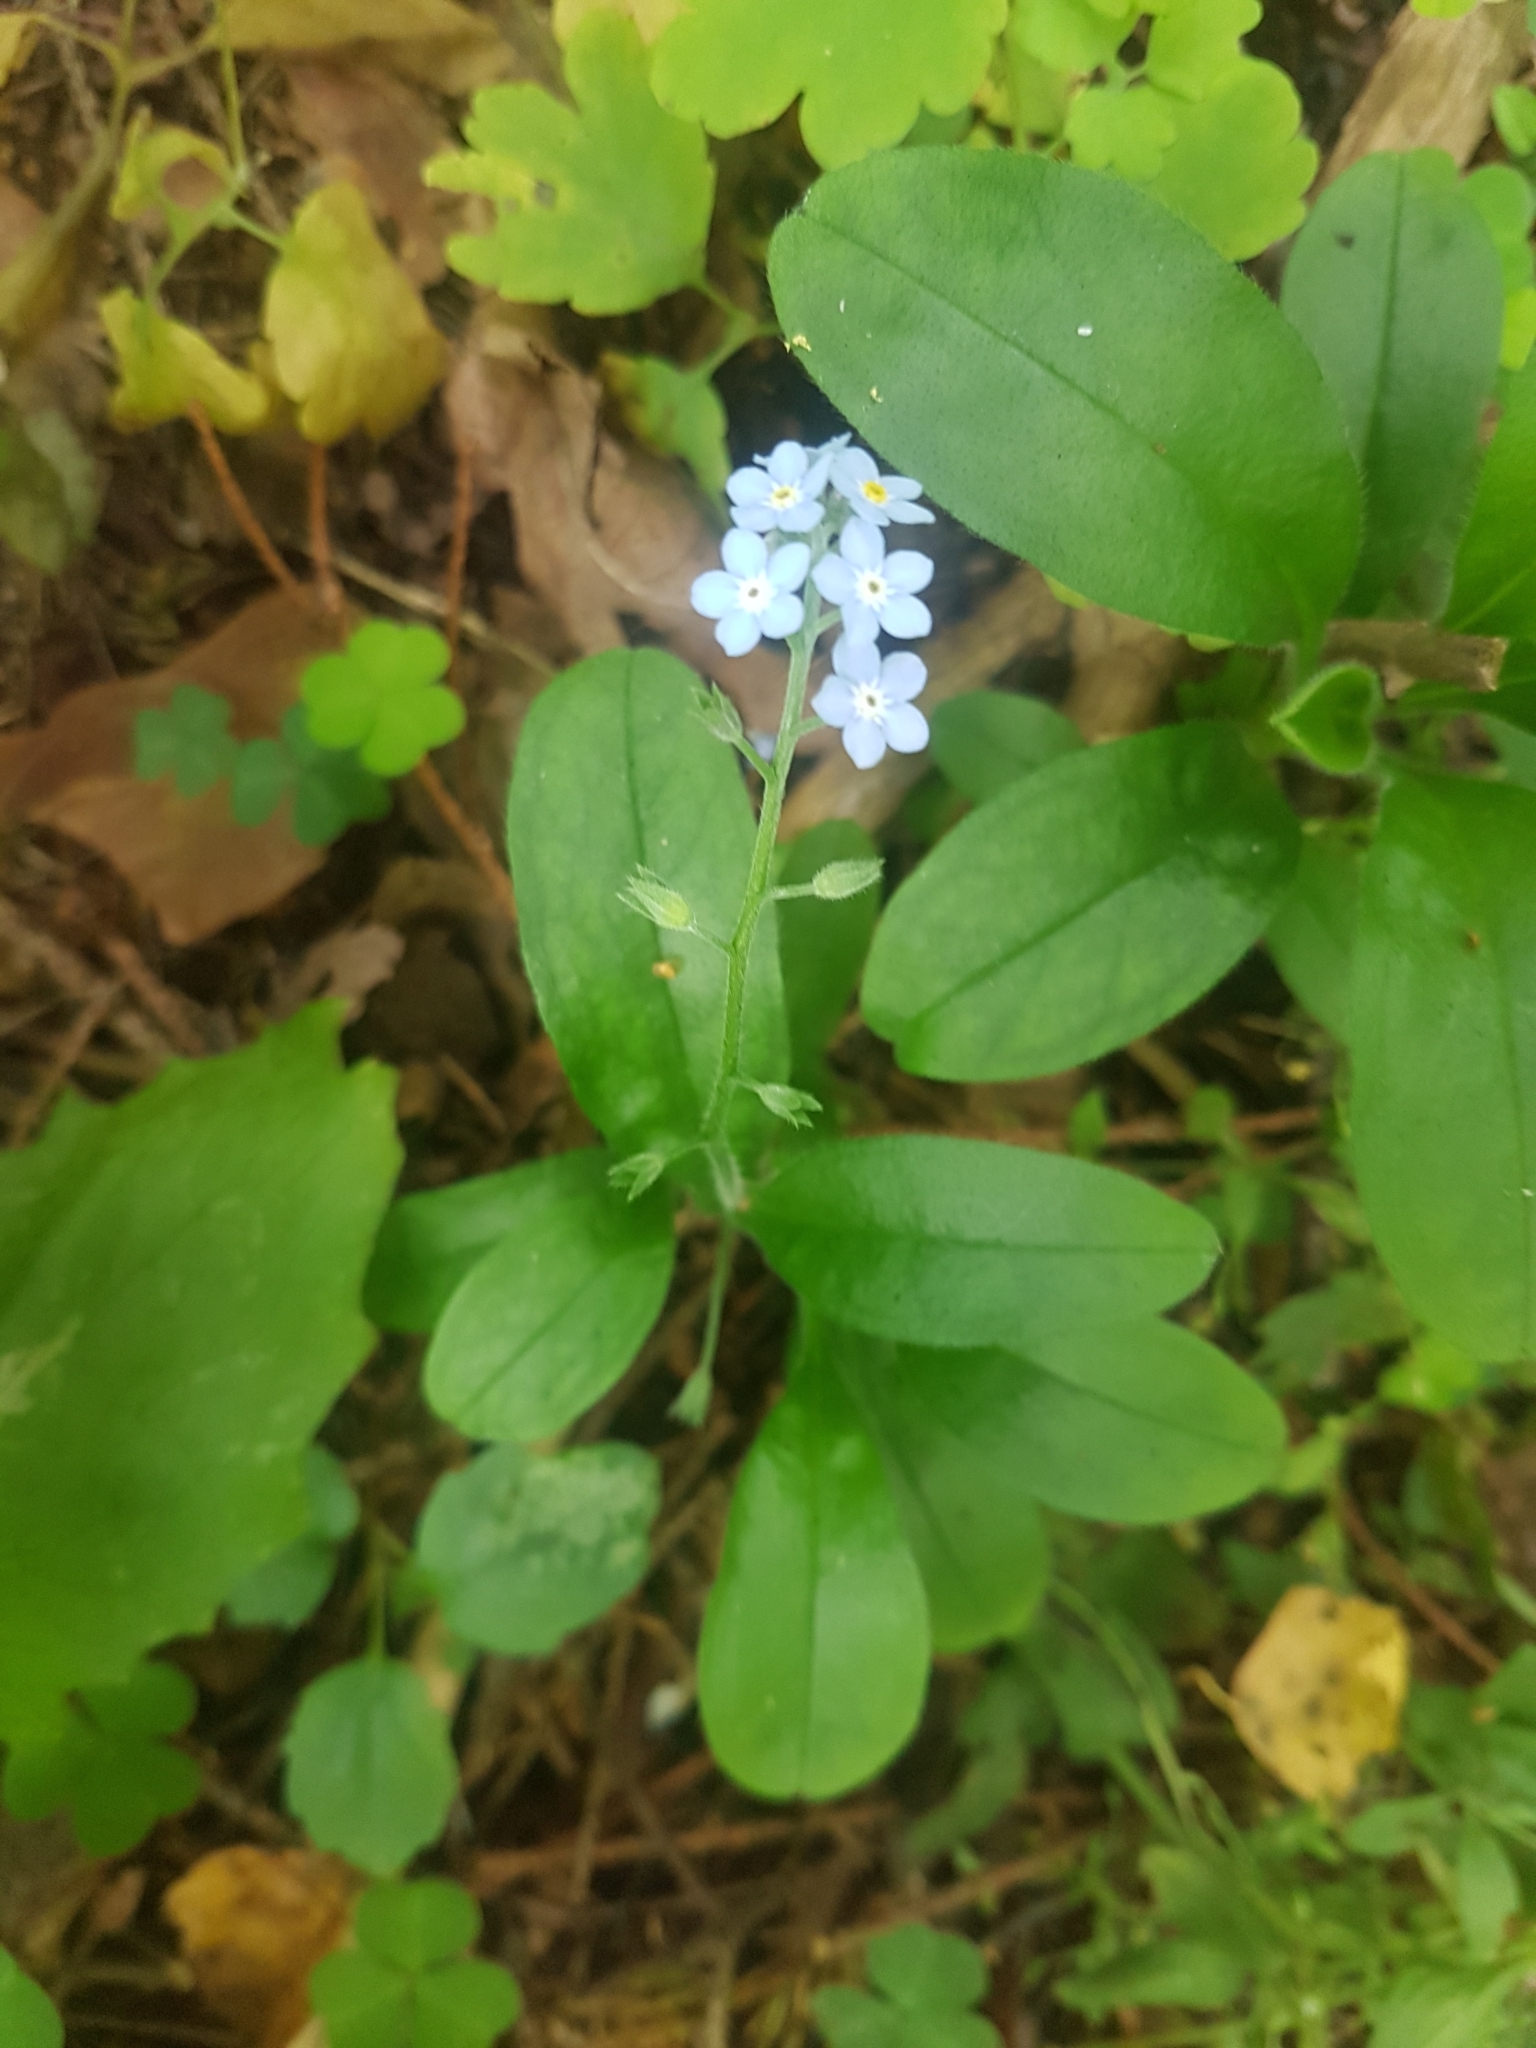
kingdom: Plantae
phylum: Tracheophyta
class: Magnoliopsida
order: Boraginales
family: Boraginaceae
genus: Myosotis
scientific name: Myosotis sylvatica
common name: Wood forget-me-not
